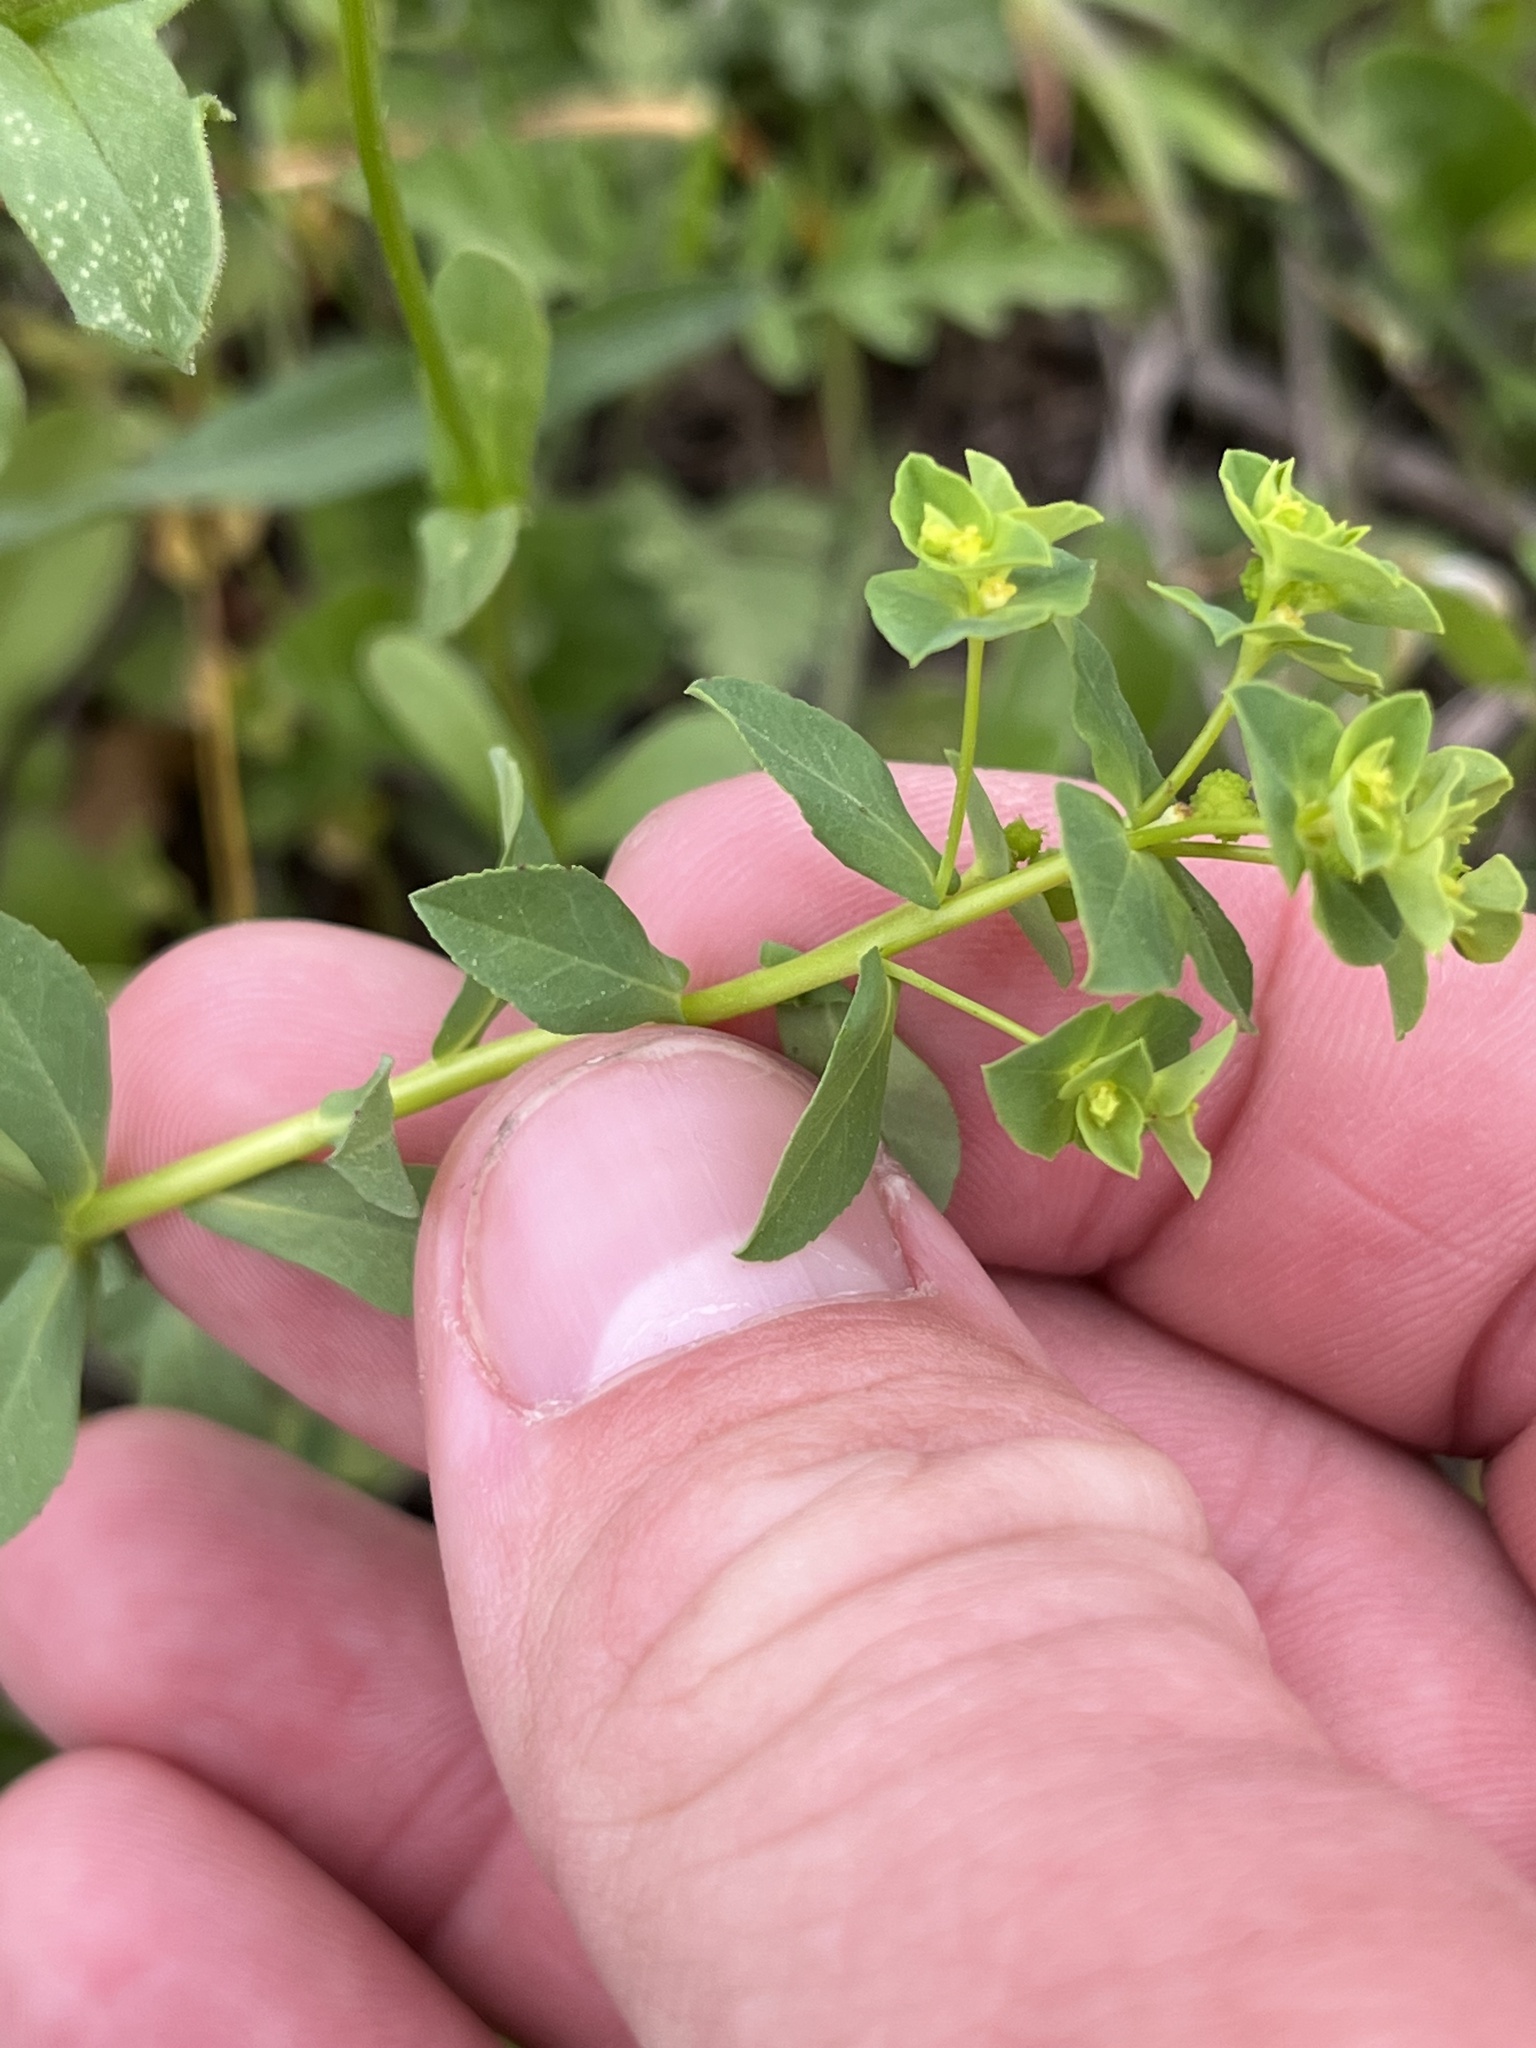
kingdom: Plantae
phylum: Tracheophyta
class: Magnoliopsida
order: Malpighiales
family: Euphorbiaceae
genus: Euphorbia
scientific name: Euphorbia spathulata
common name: Blunt spurge
